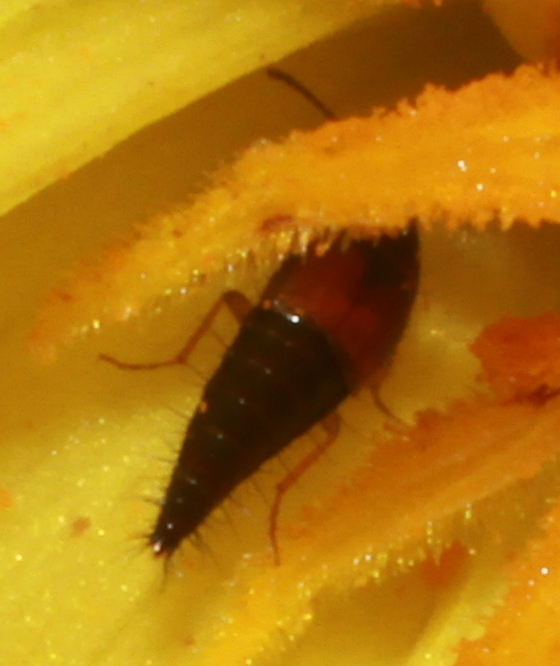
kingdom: Animalia
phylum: Arthropoda
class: Insecta
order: Coleoptera
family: Staphylinidae
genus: Tachyporus
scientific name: Tachyporus hypnorum
